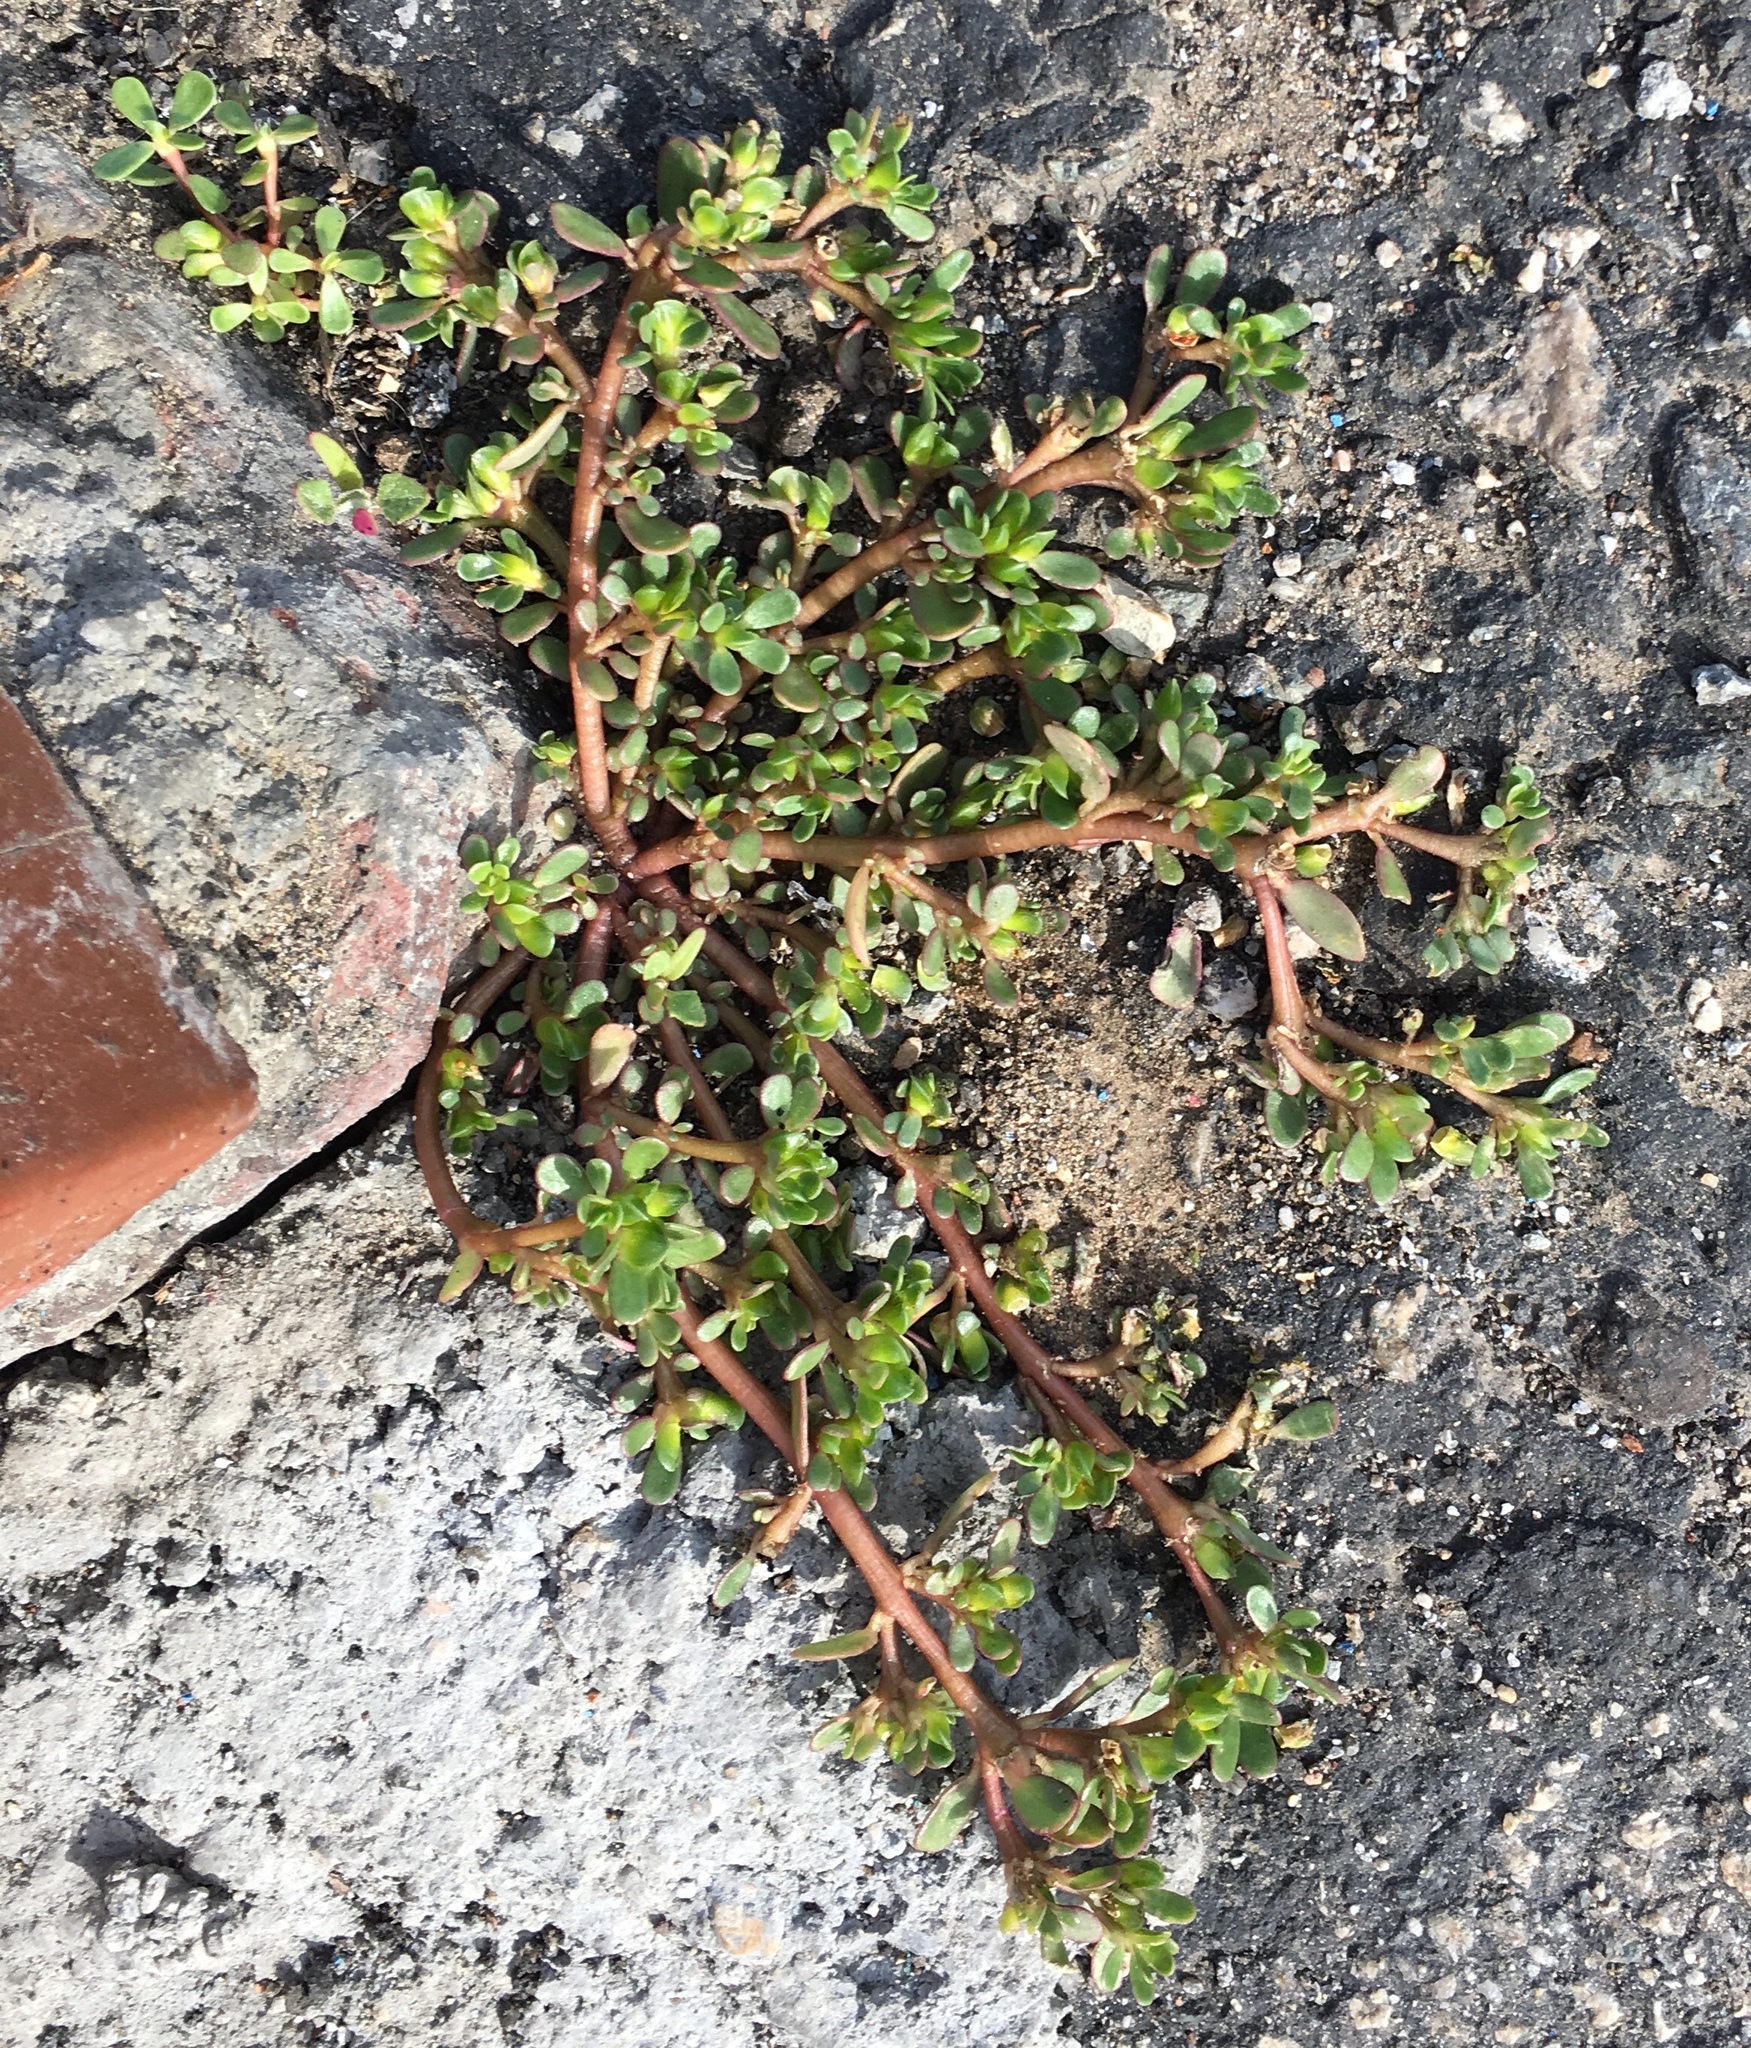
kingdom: Plantae
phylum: Tracheophyta
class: Magnoliopsida
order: Caryophyllales
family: Portulacaceae
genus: Portulaca
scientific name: Portulaca oleracea
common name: Common purslane
